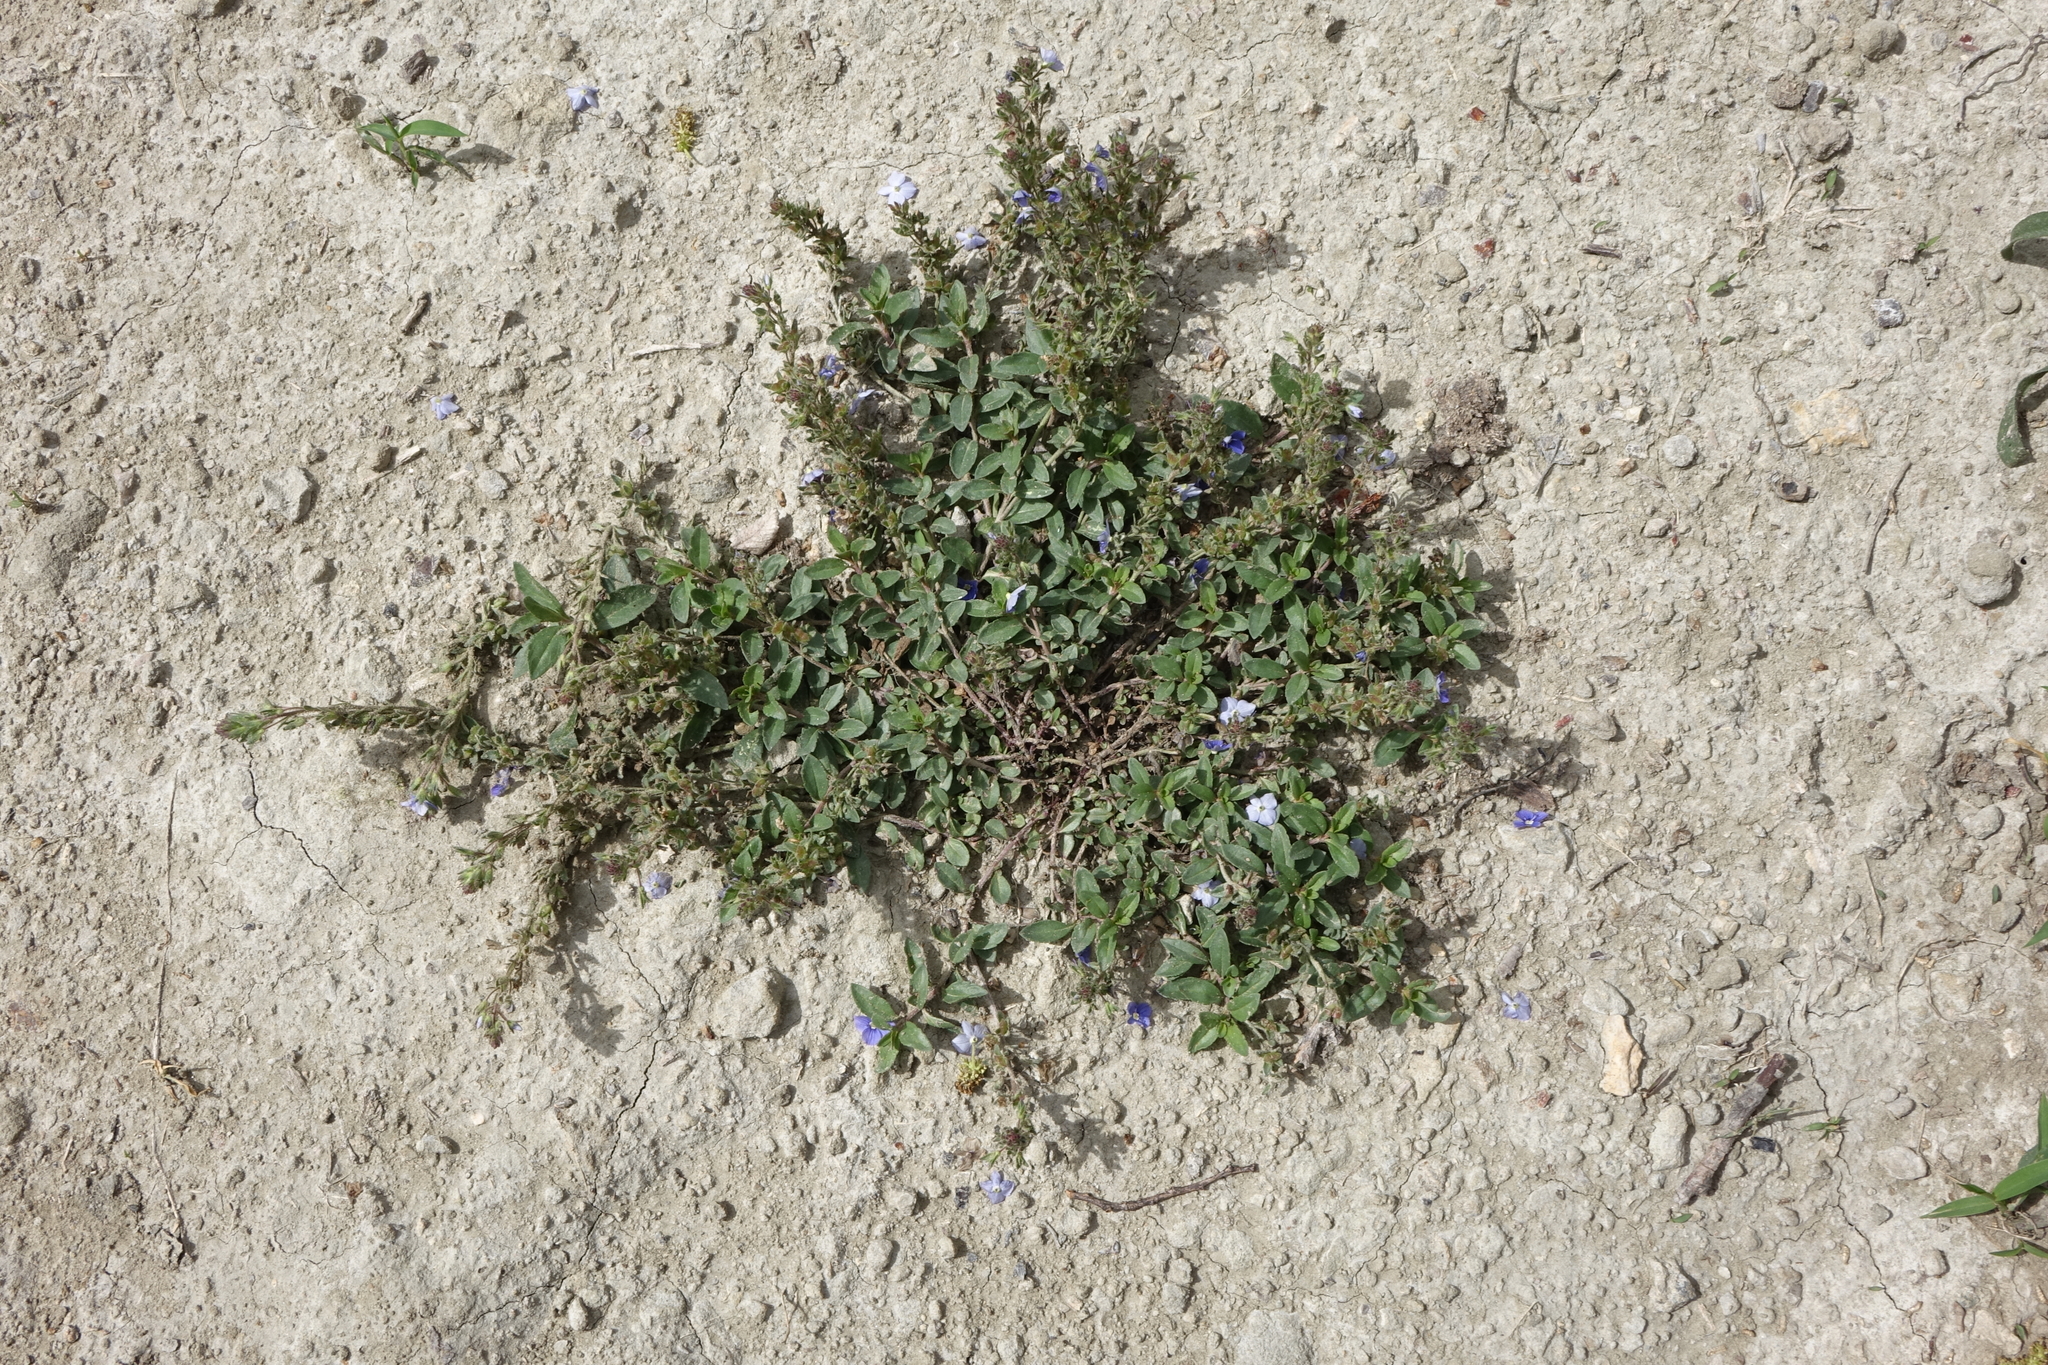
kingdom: Plantae
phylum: Tracheophyta
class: Magnoliopsida
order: Lamiales
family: Plantaginaceae
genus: Veronica
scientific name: Veronica vendettadeae
